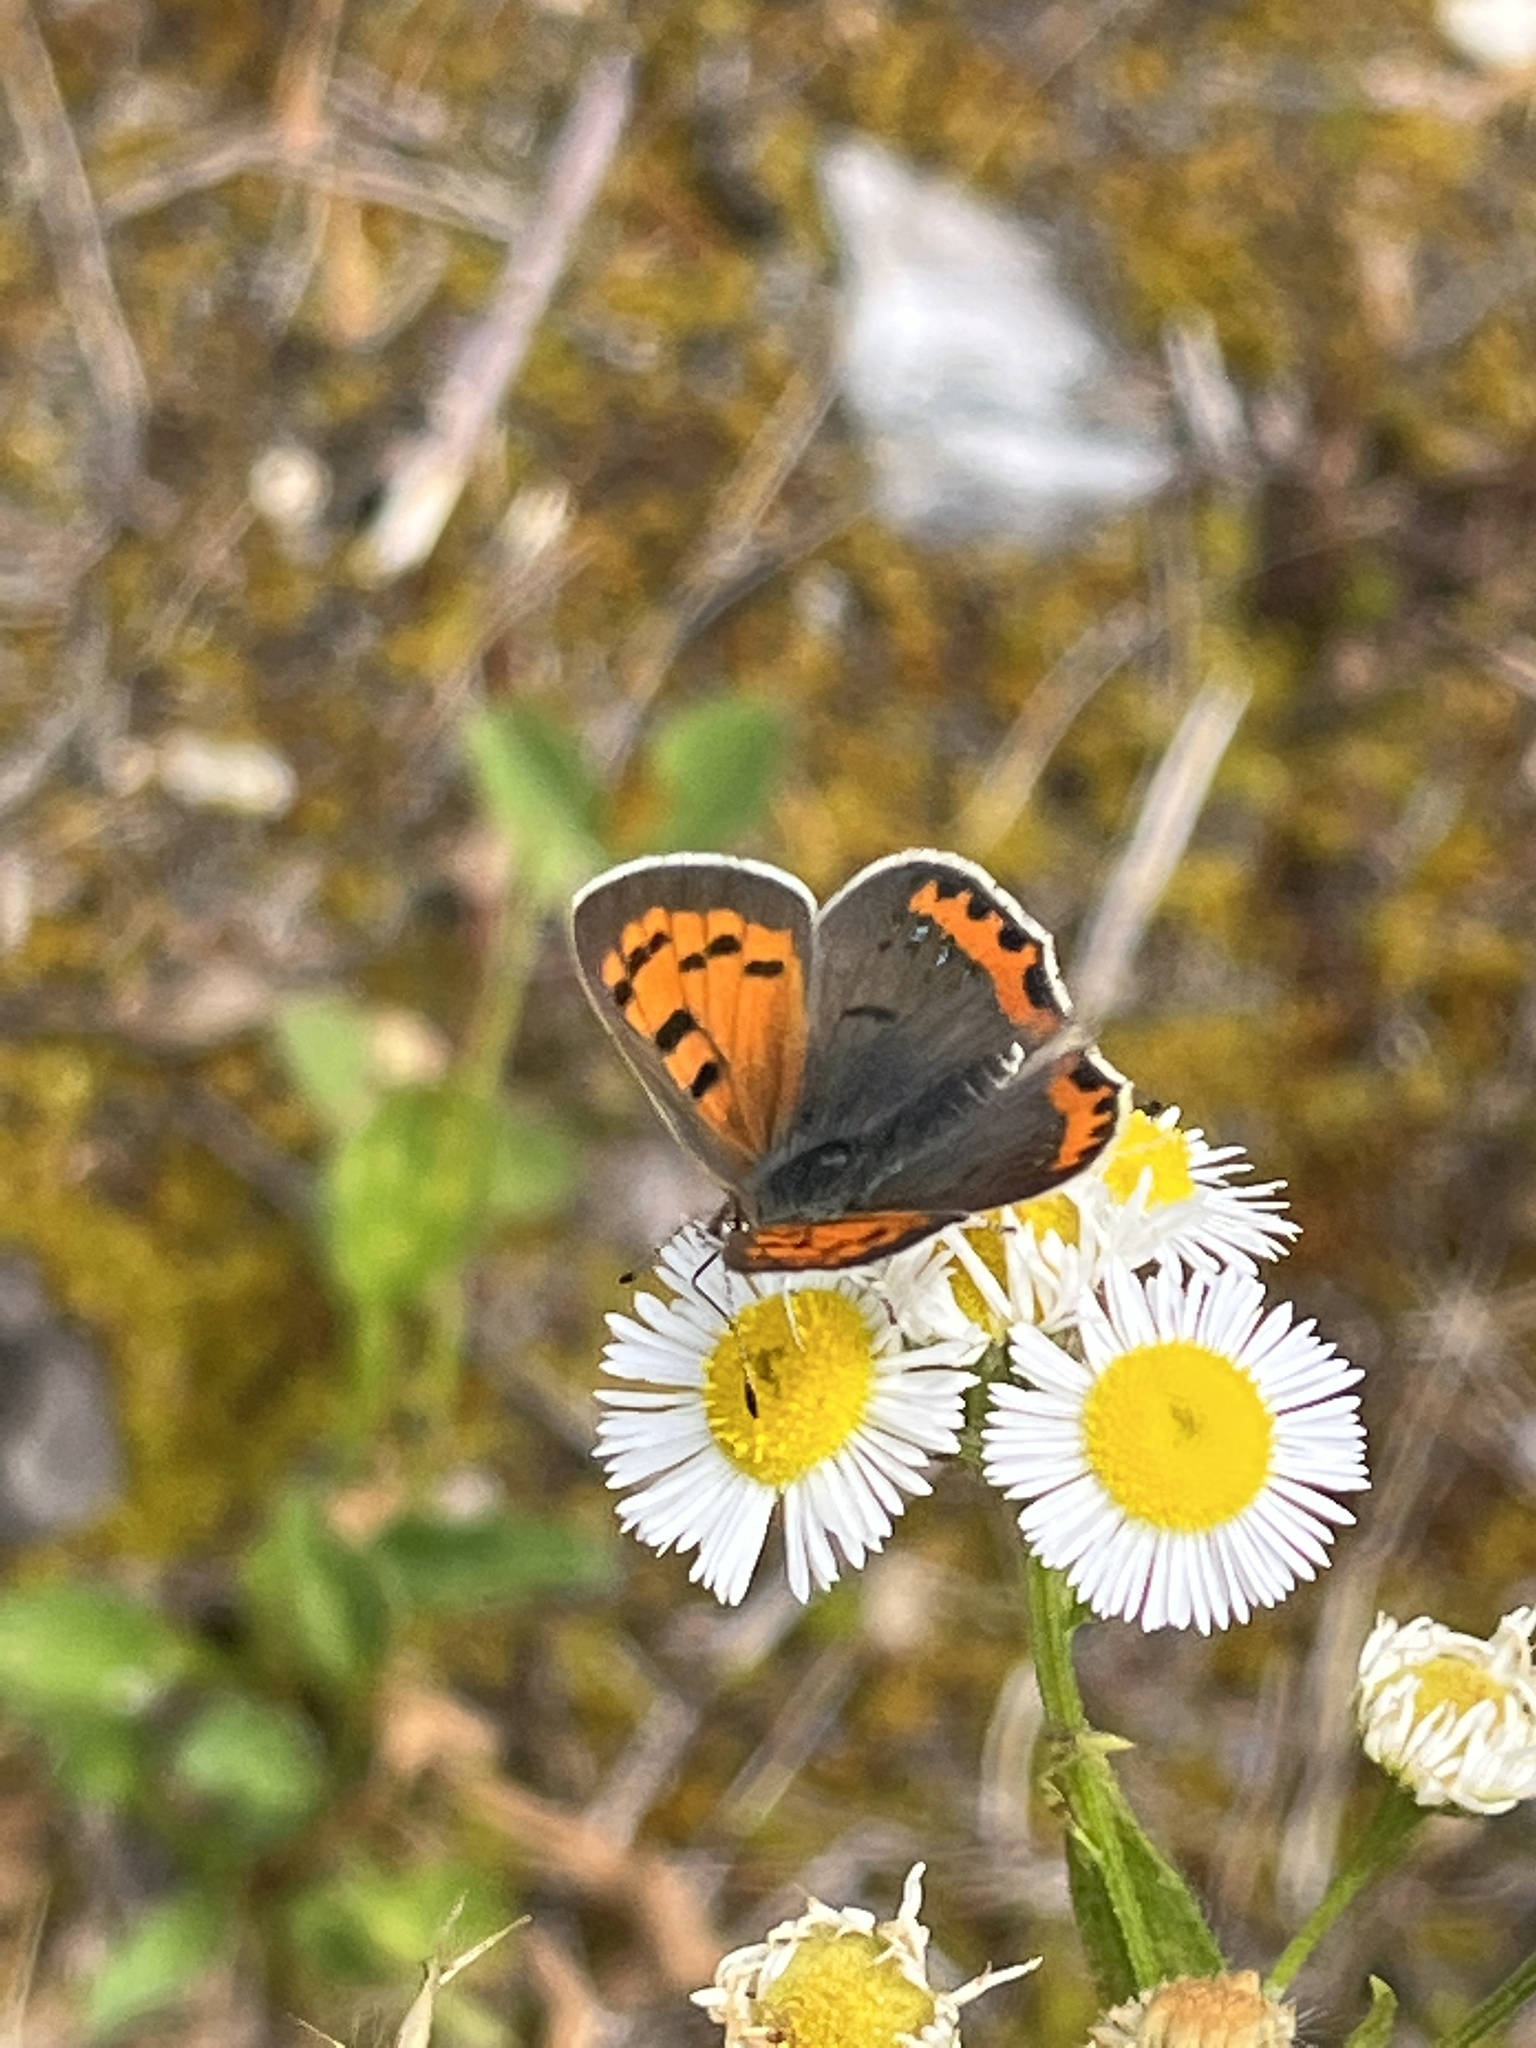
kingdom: Animalia
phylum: Arthropoda
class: Insecta
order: Lepidoptera
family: Lycaenidae
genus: Lycaena
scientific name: Lycaena hypophlaeas
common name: American copper
